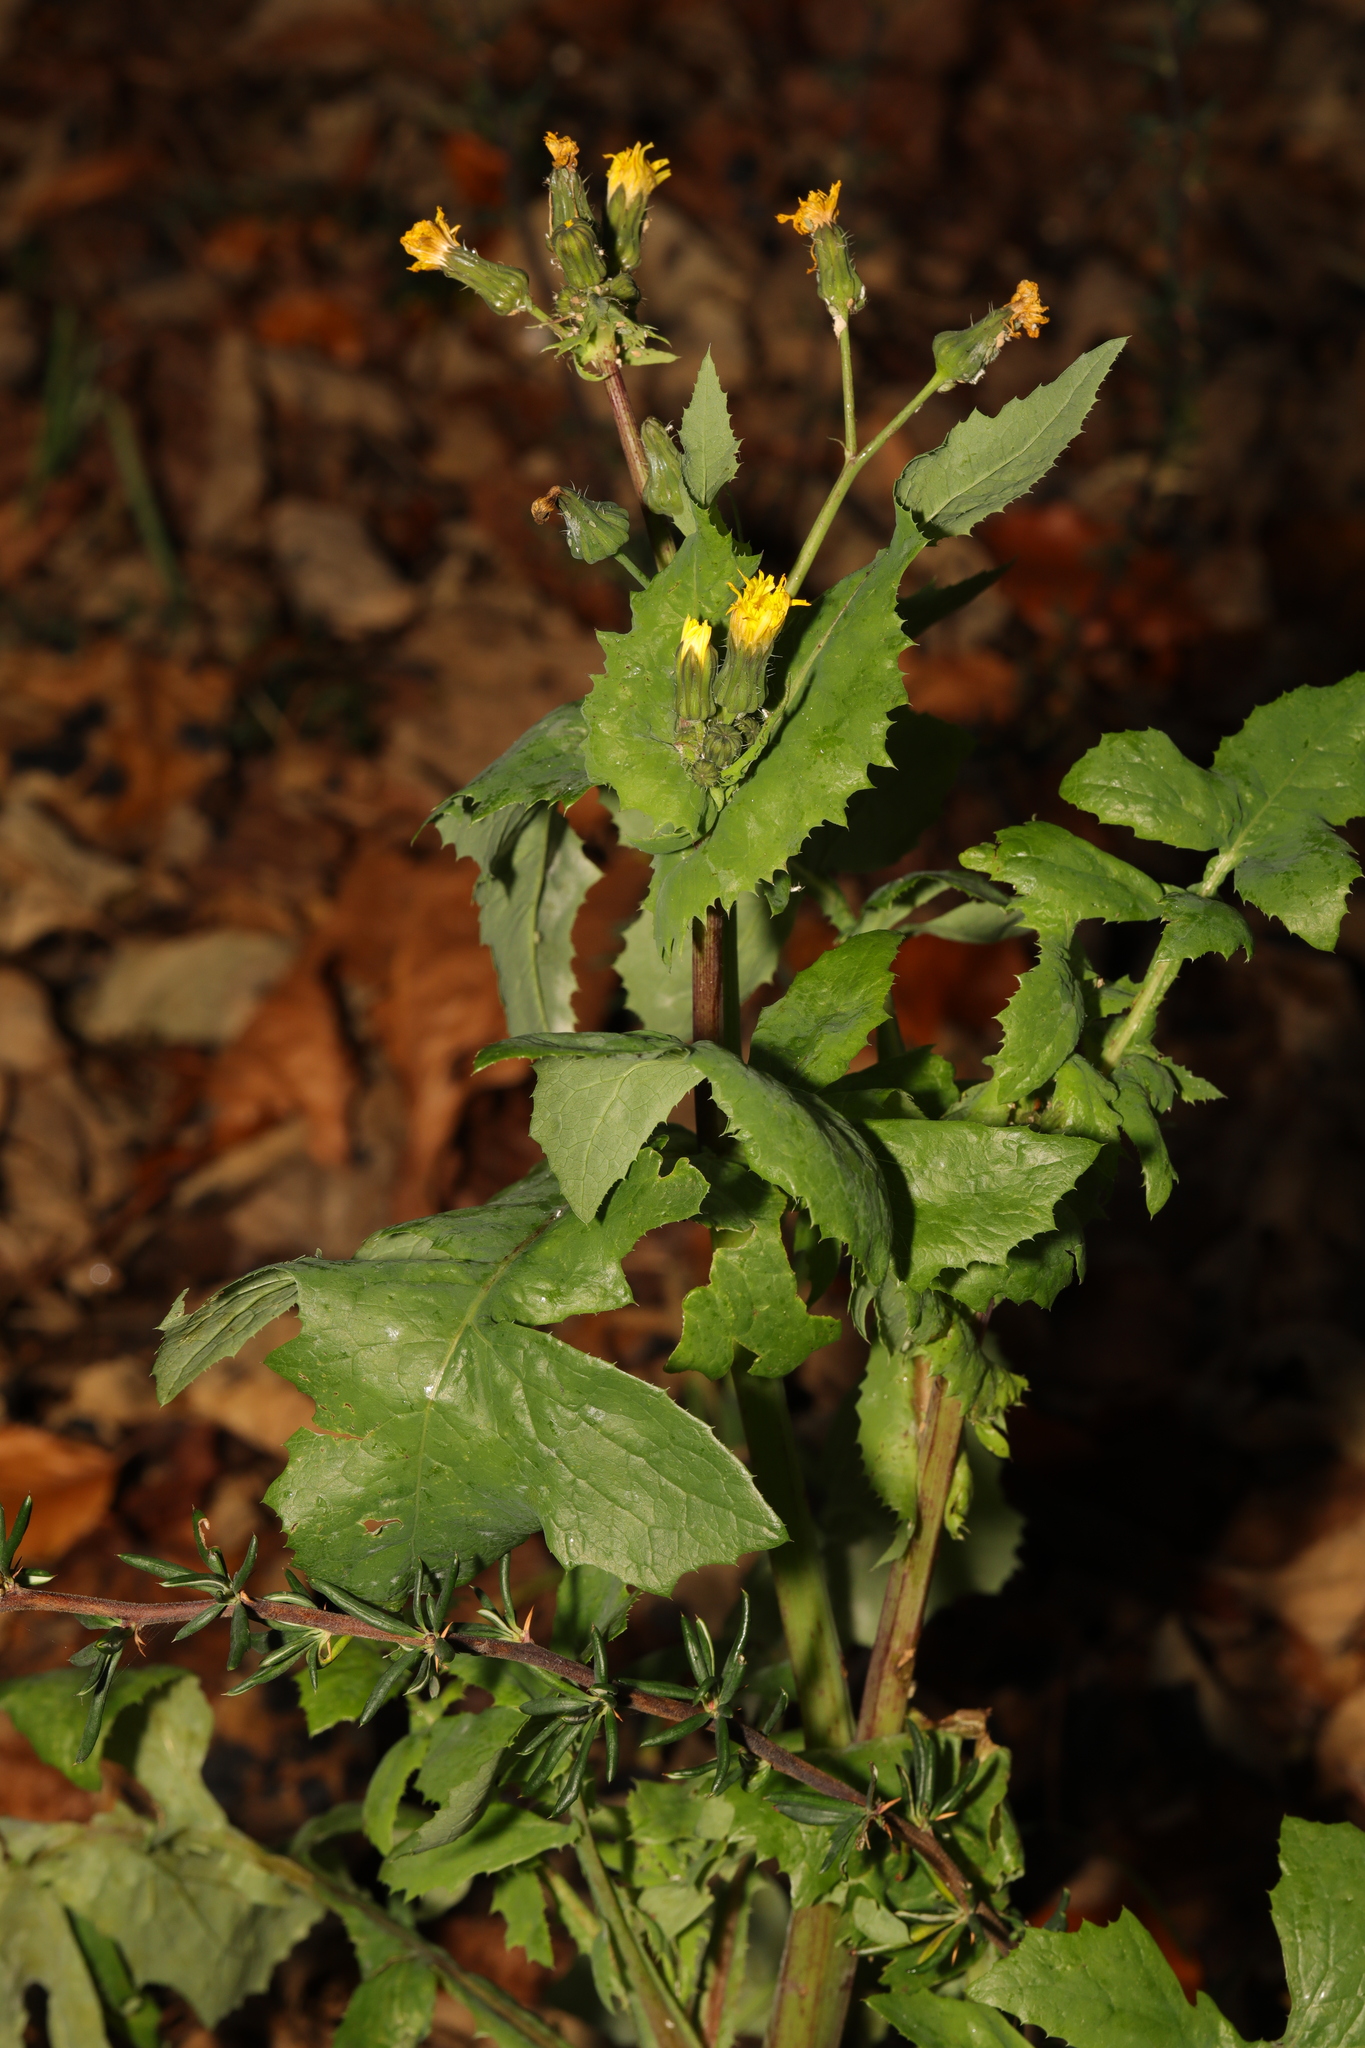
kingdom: Plantae
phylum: Tracheophyta
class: Magnoliopsida
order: Asterales
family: Asteraceae
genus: Sonchus
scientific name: Sonchus oleraceus
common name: Common sowthistle
